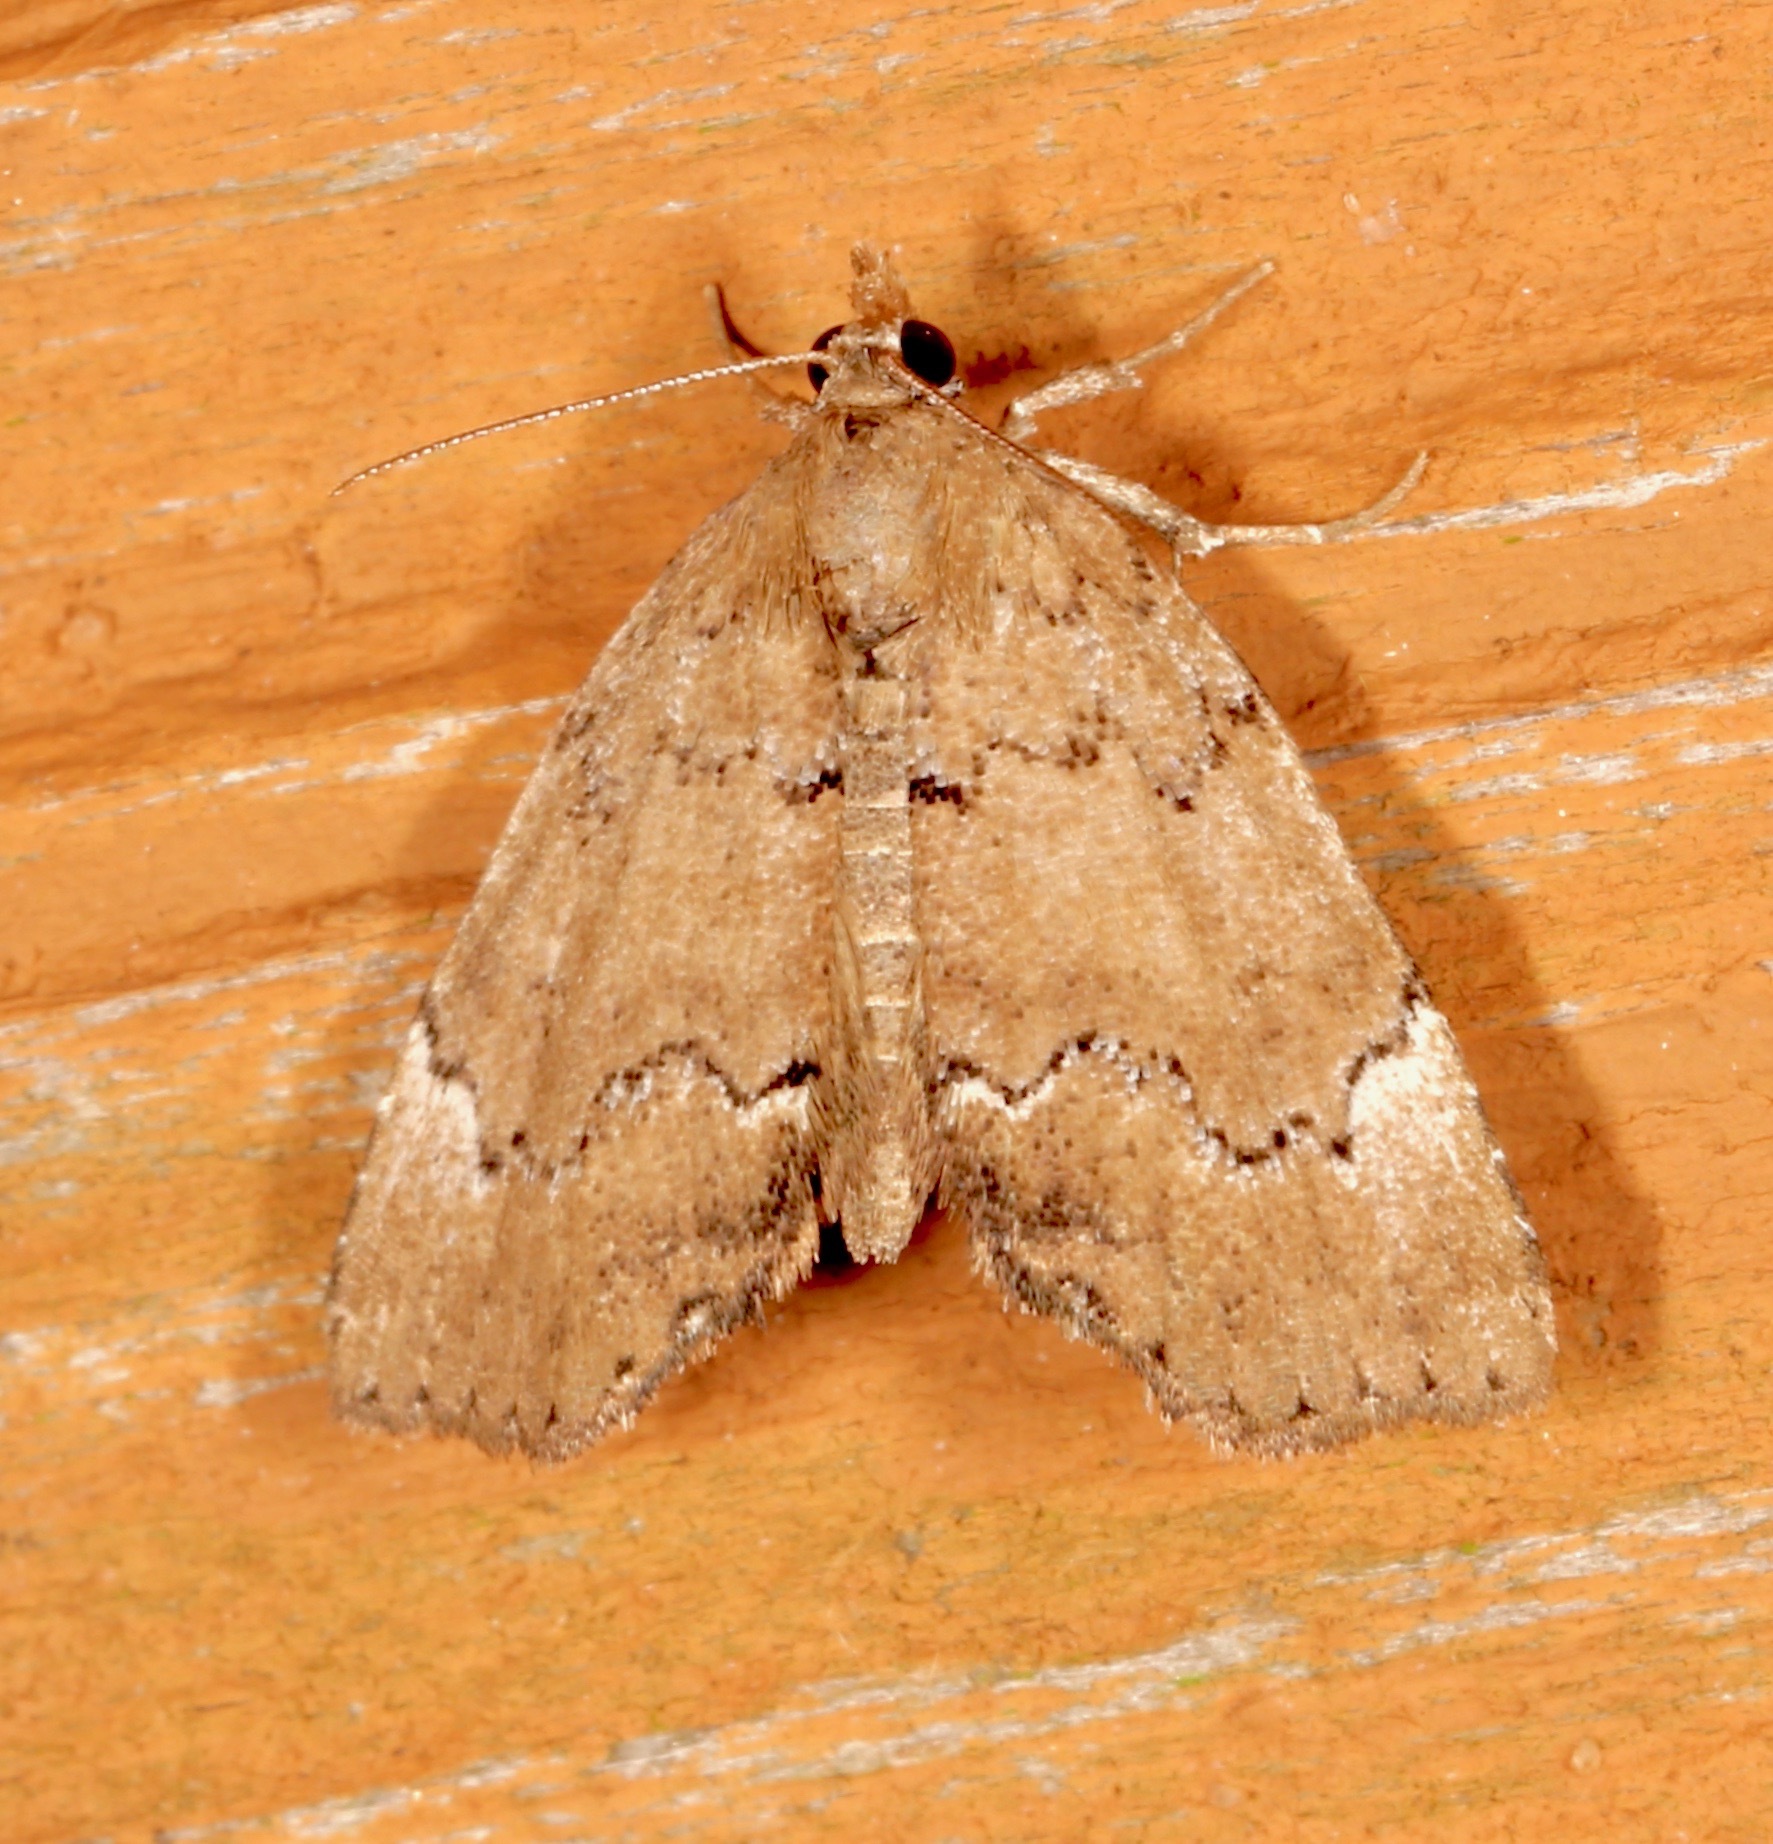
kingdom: Animalia
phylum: Arthropoda
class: Insecta
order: Lepidoptera
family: Erebidae
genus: Cutina
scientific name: Cutina aluticolor
